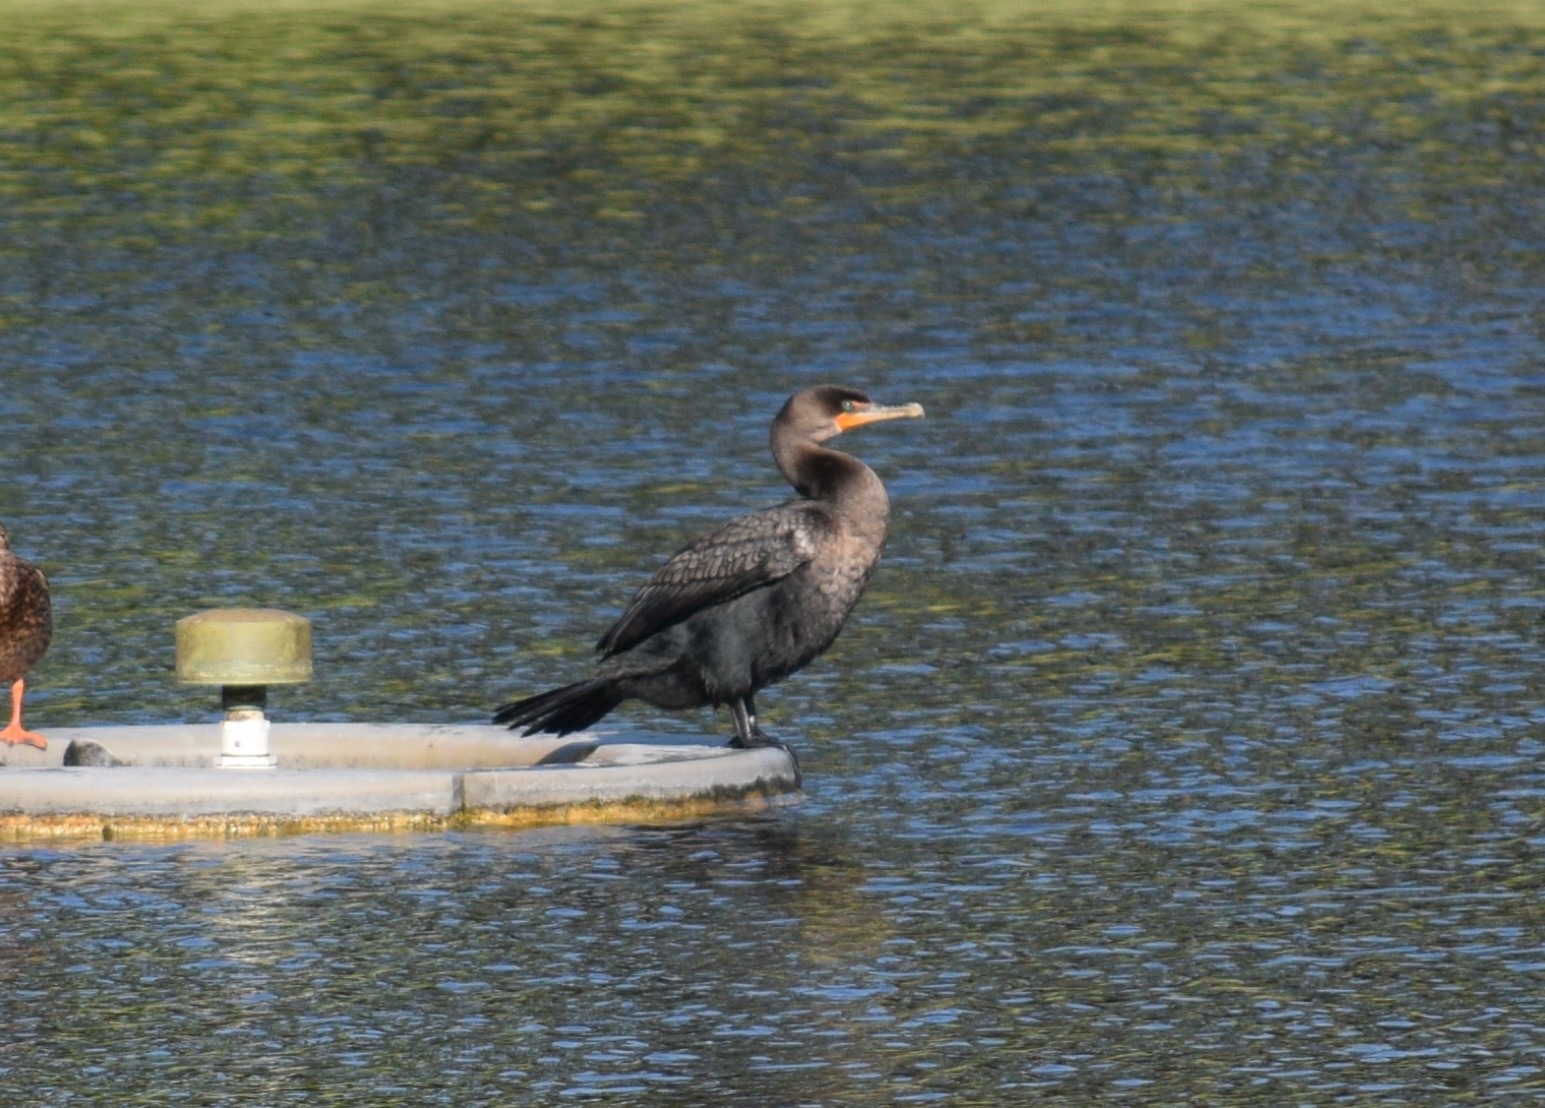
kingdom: Animalia
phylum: Chordata
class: Aves
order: Suliformes
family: Phalacrocoracidae
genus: Phalacrocorax
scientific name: Phalacrocorax auritus
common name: Double-crested cormorant
